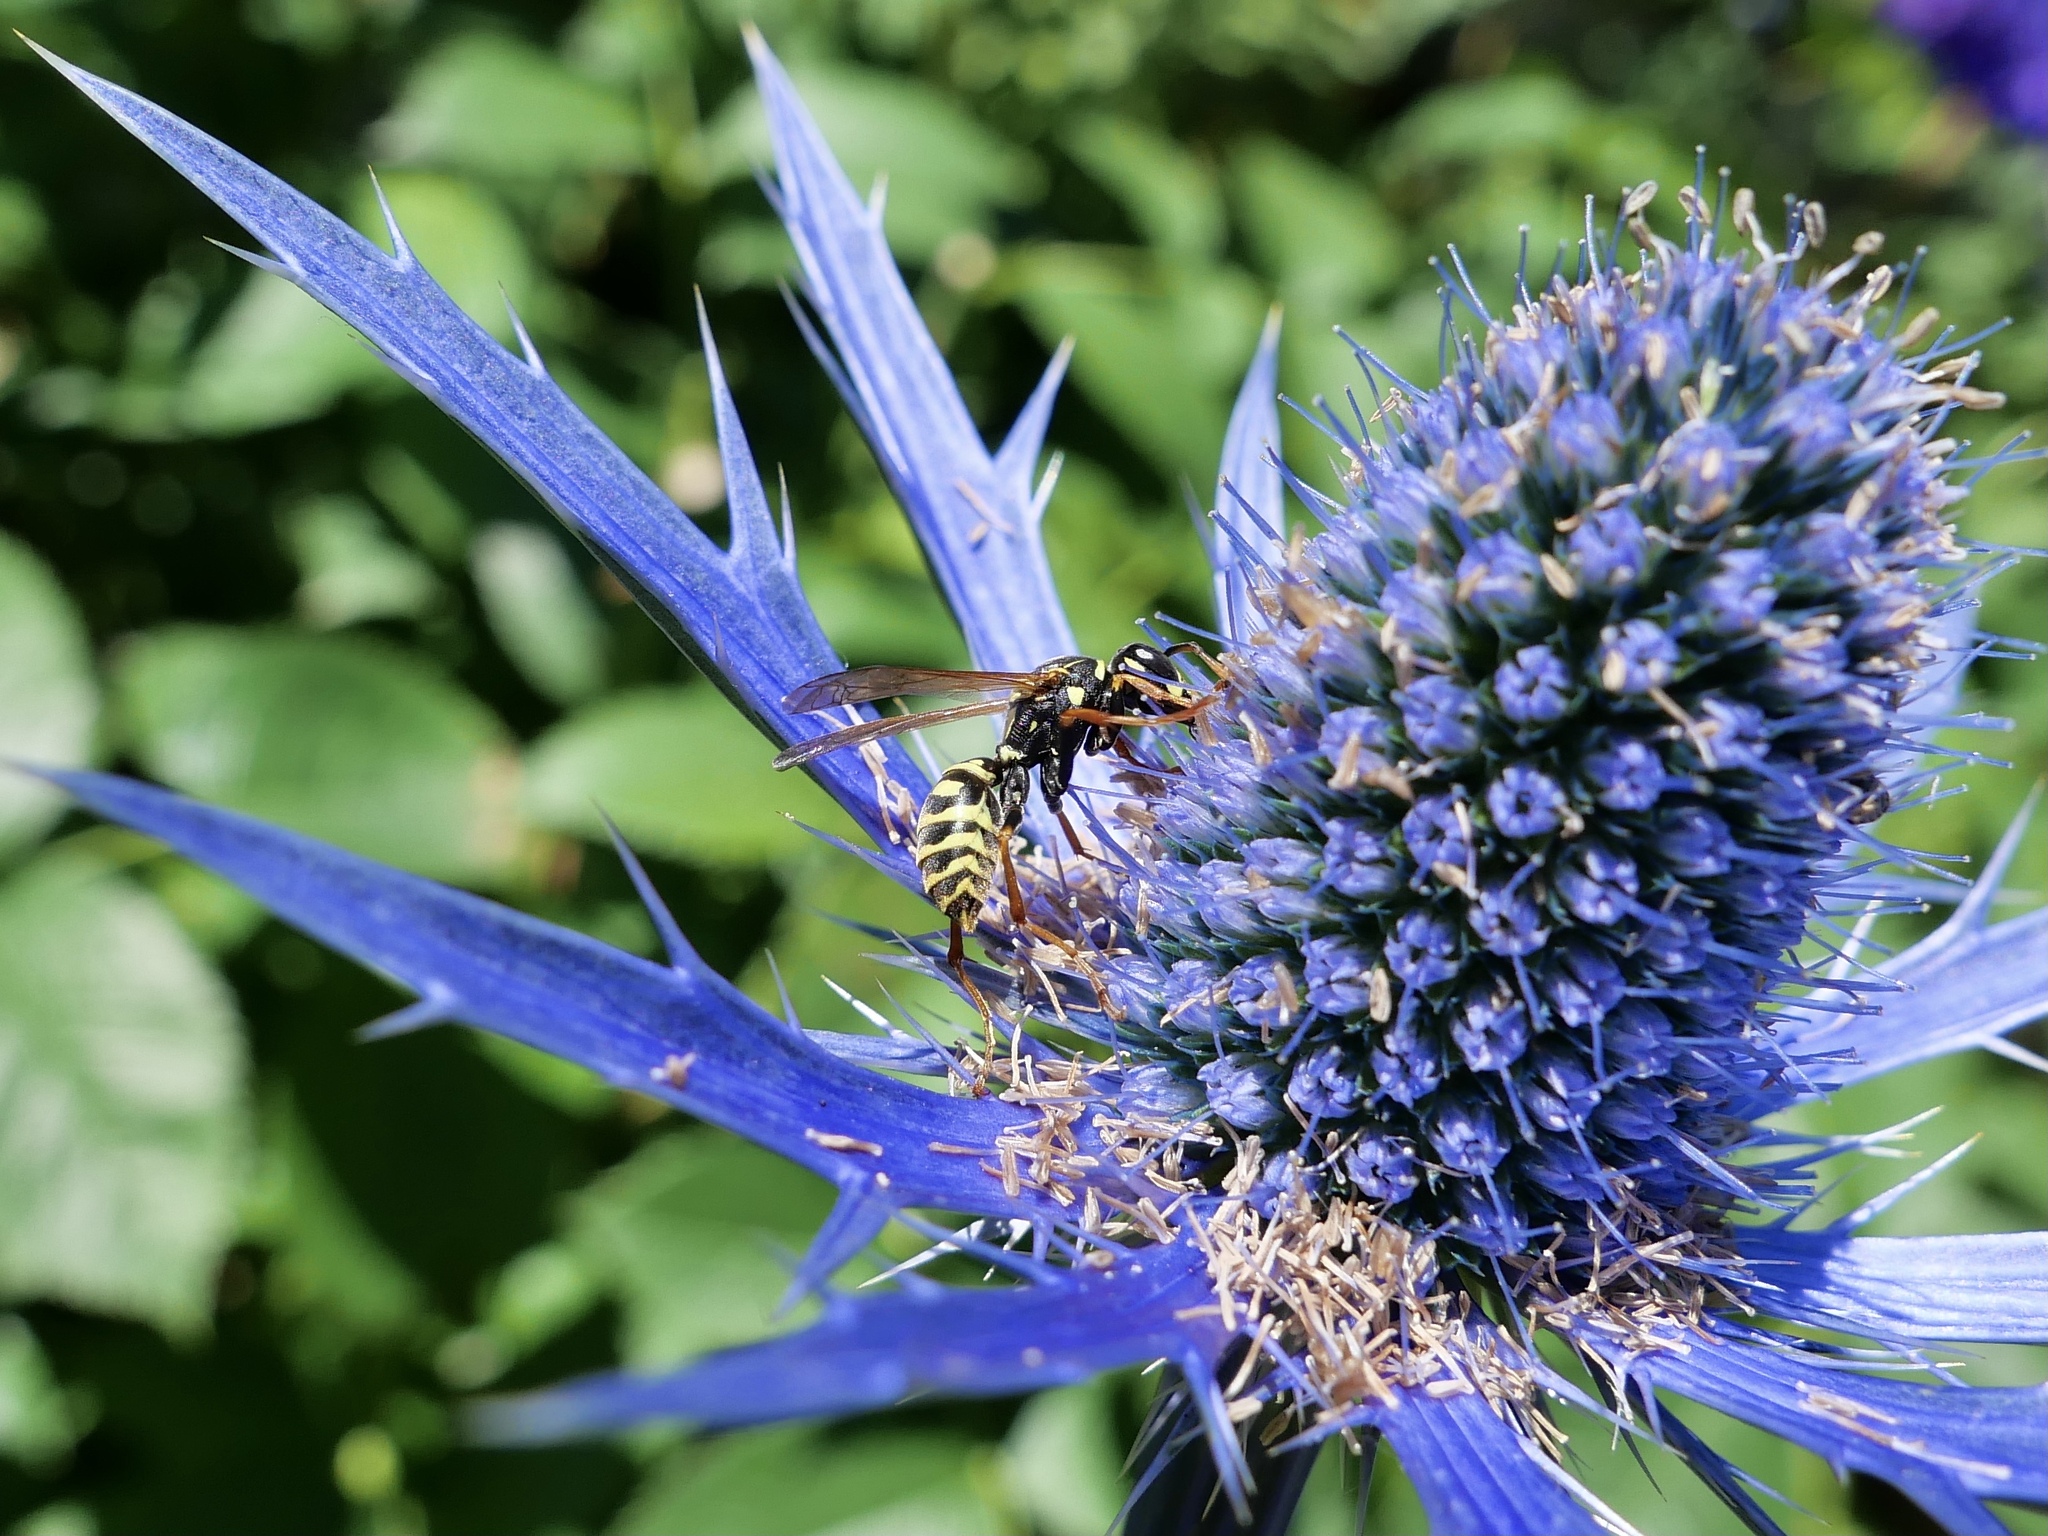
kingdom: Animalia
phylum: Arthropoda
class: Insecta
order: Hymenoptera
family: Eumenidae
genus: Polistes
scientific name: Polistes dominula
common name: Paper wasp
